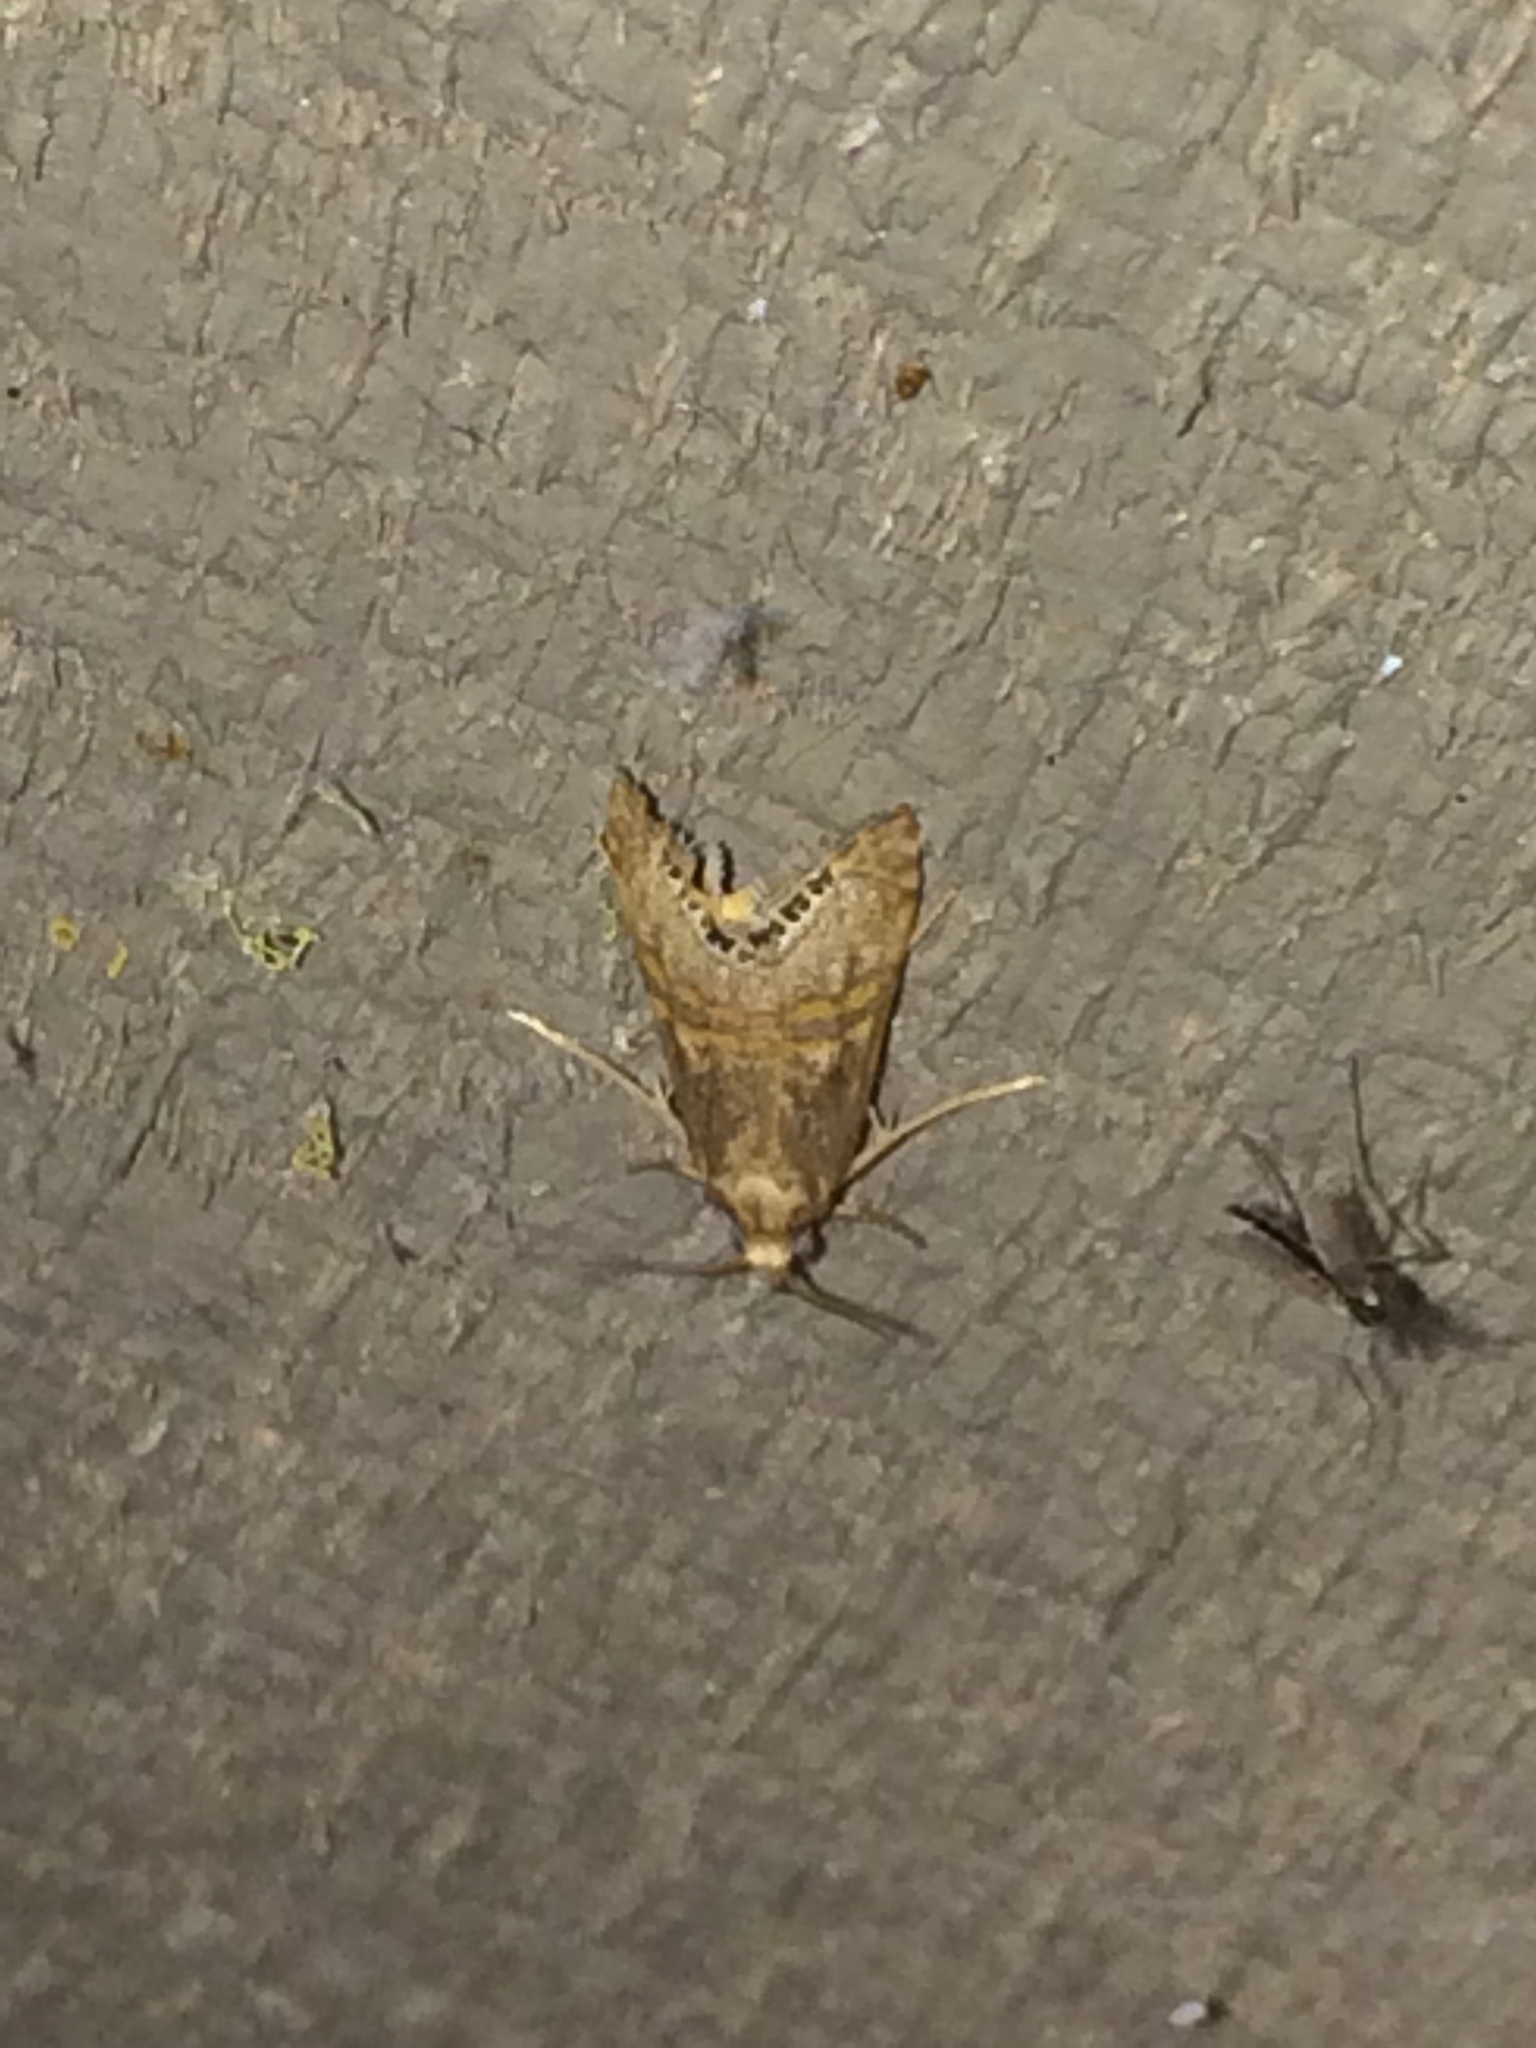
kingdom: Animalia
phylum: Arthropoda
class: Insecta
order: Lepidoptera
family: Crambidae
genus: Euchromius
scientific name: Euchromius ocellea
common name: Necklace veneer moth
